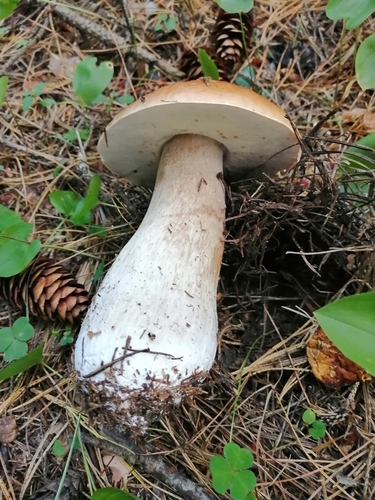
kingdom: Fungi
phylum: Basidiomycota
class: Agaricomycetes
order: Boletales
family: Boletaceae
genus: Boletus
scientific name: Boletus edulis
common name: Cep
